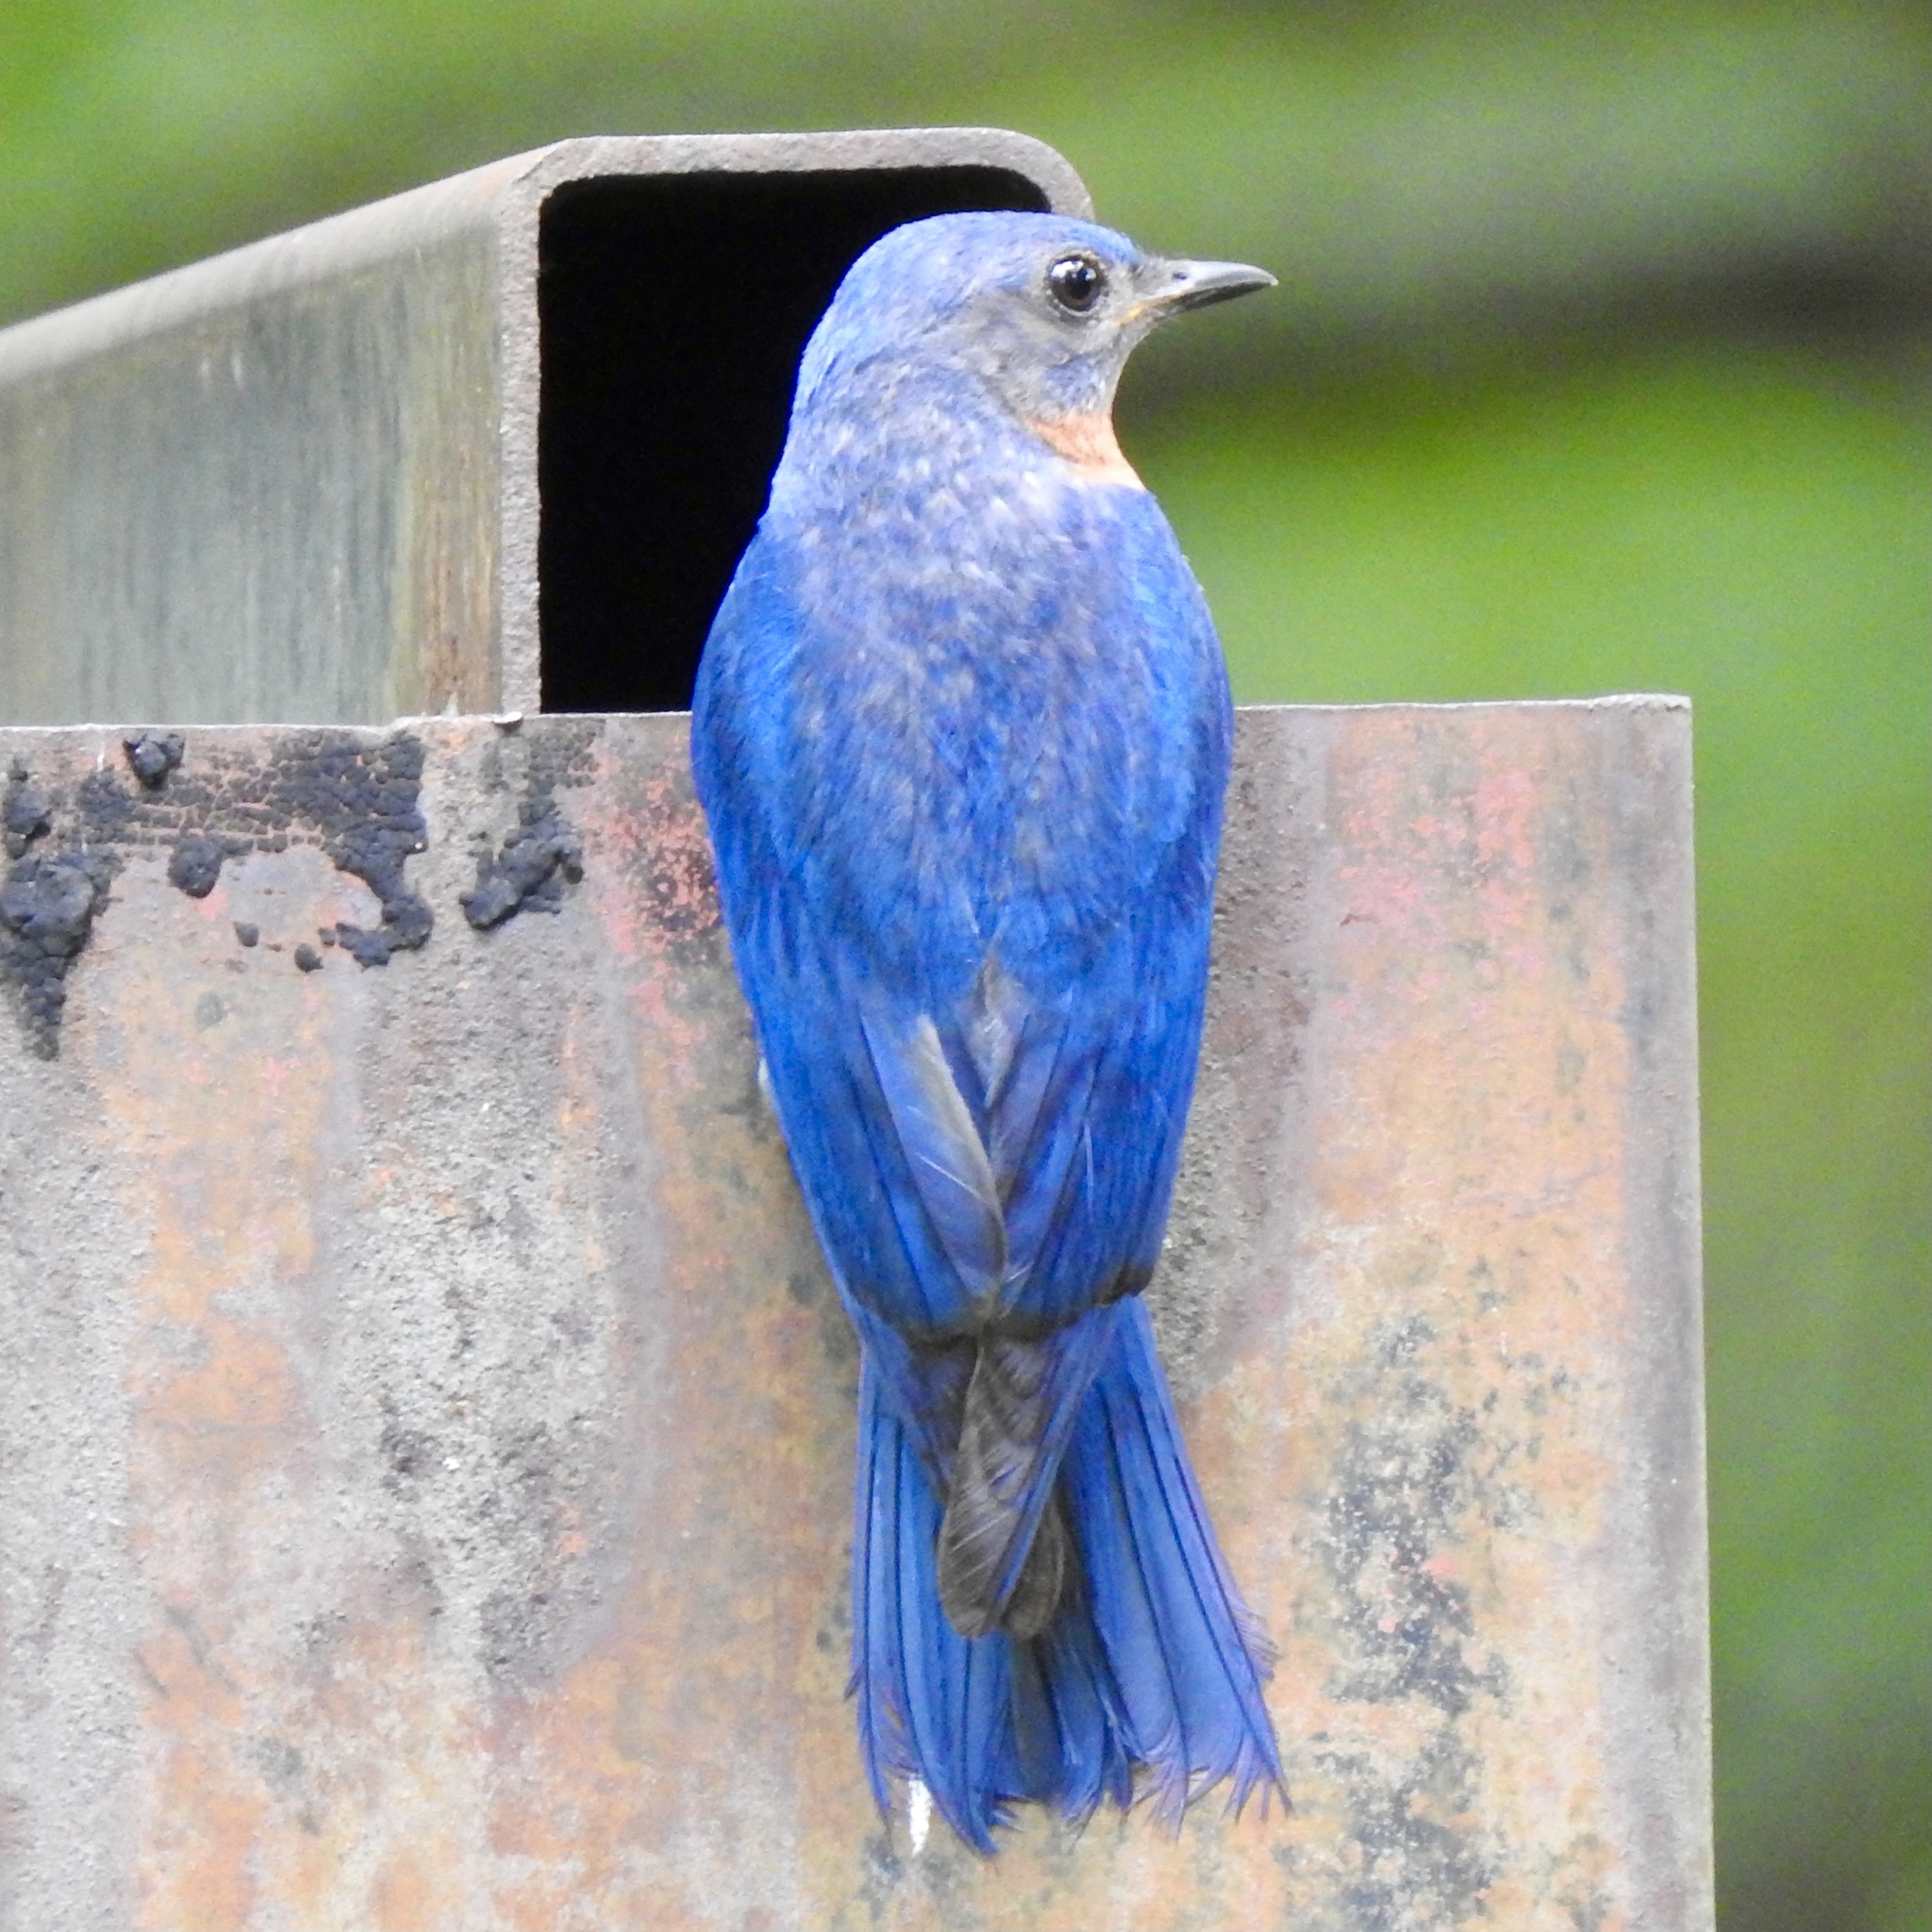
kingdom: Animalia
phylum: Chordata
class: Aves
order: Passeriformes
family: Turdidae
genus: Sialia
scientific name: Sialia sialis
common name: Eastern bluebird
